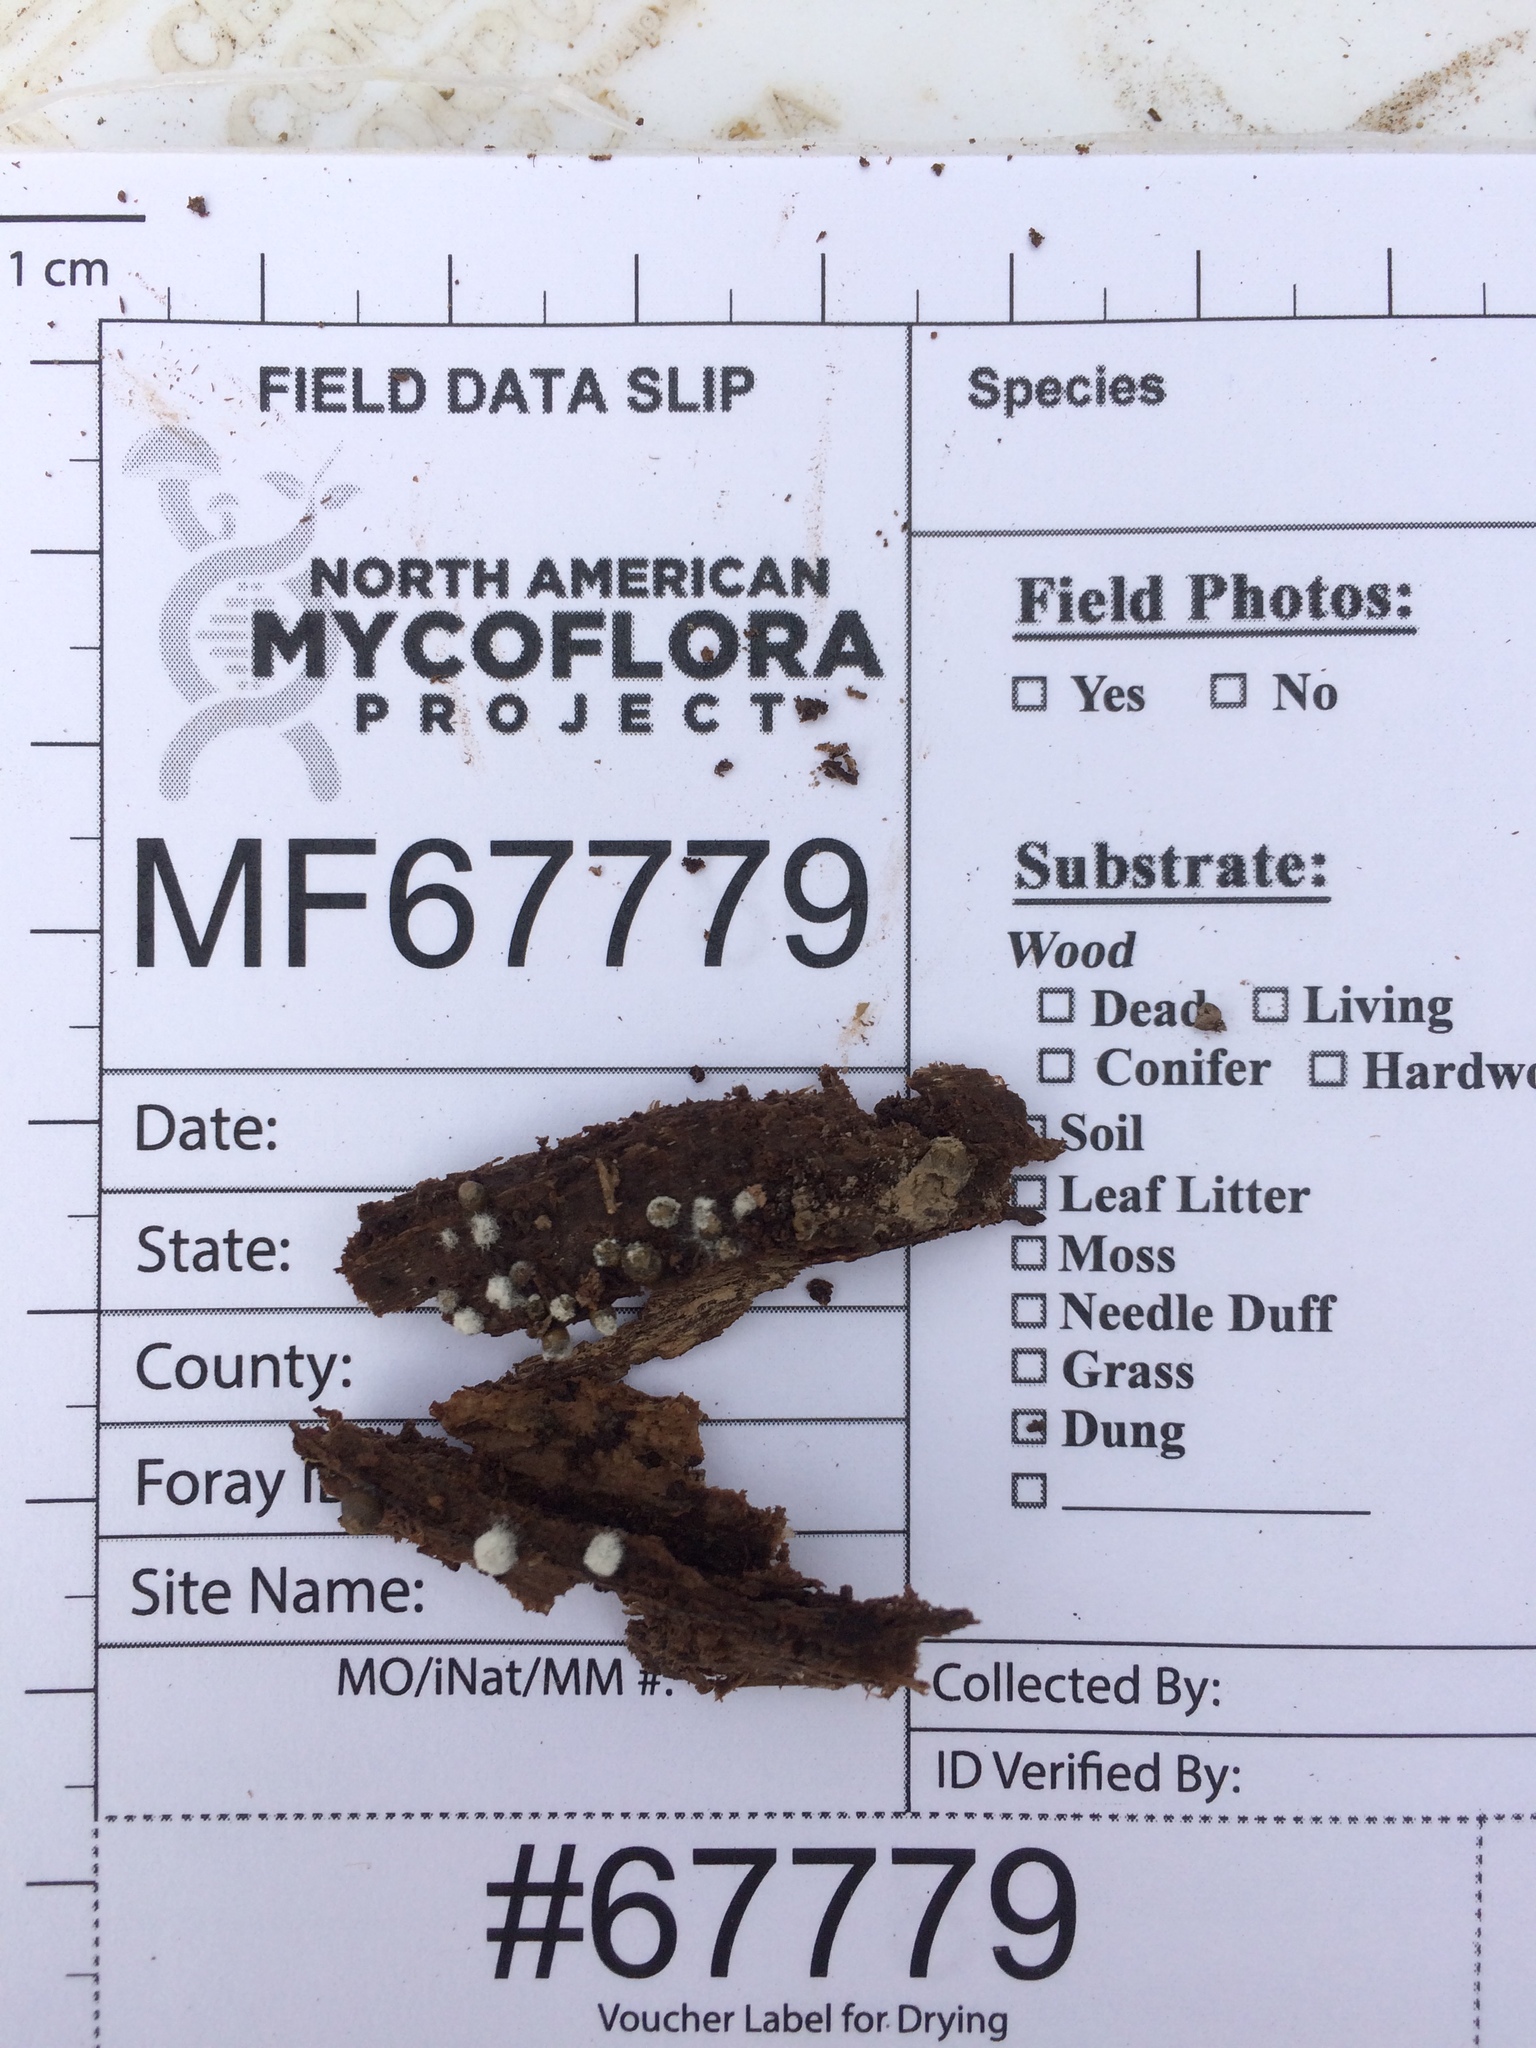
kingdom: Fungi
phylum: Ascomycota
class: Sordariomycetes
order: Hypocreales
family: Bionectriaceae
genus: Nectriopsis
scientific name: Nectriopsis rexiana
